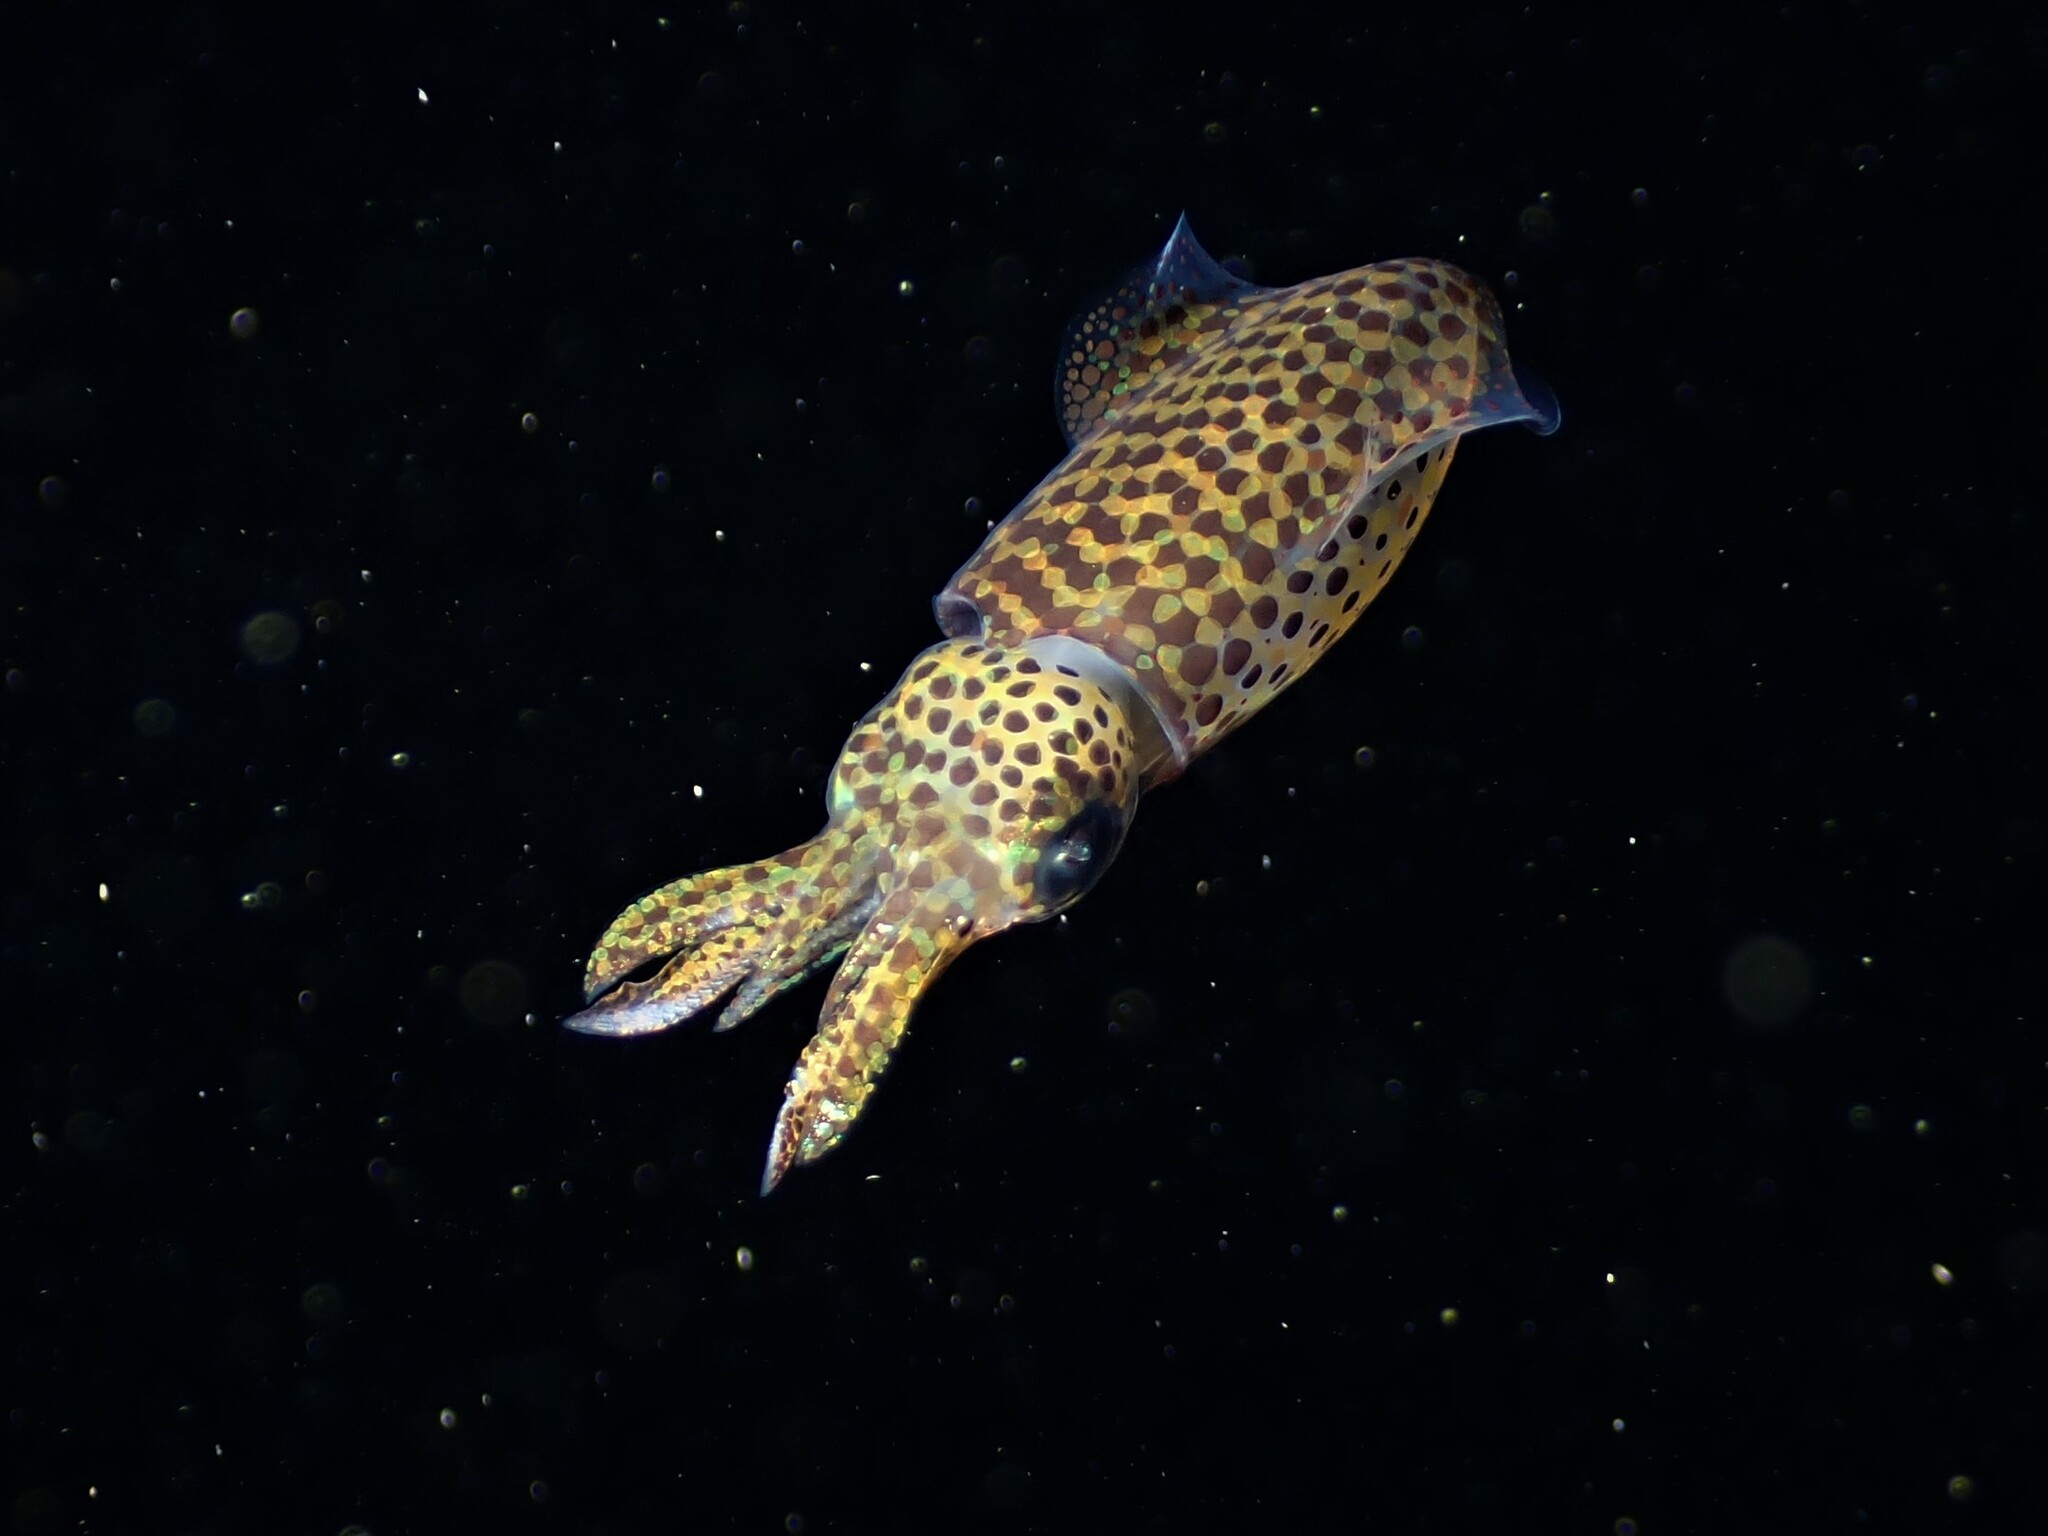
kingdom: Animalia
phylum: Mollusca
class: Cephalopoda
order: Myopsida
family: Loliginidae
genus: Sepioteuthis
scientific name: Sepioteuthis australis
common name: Southern reef squid
